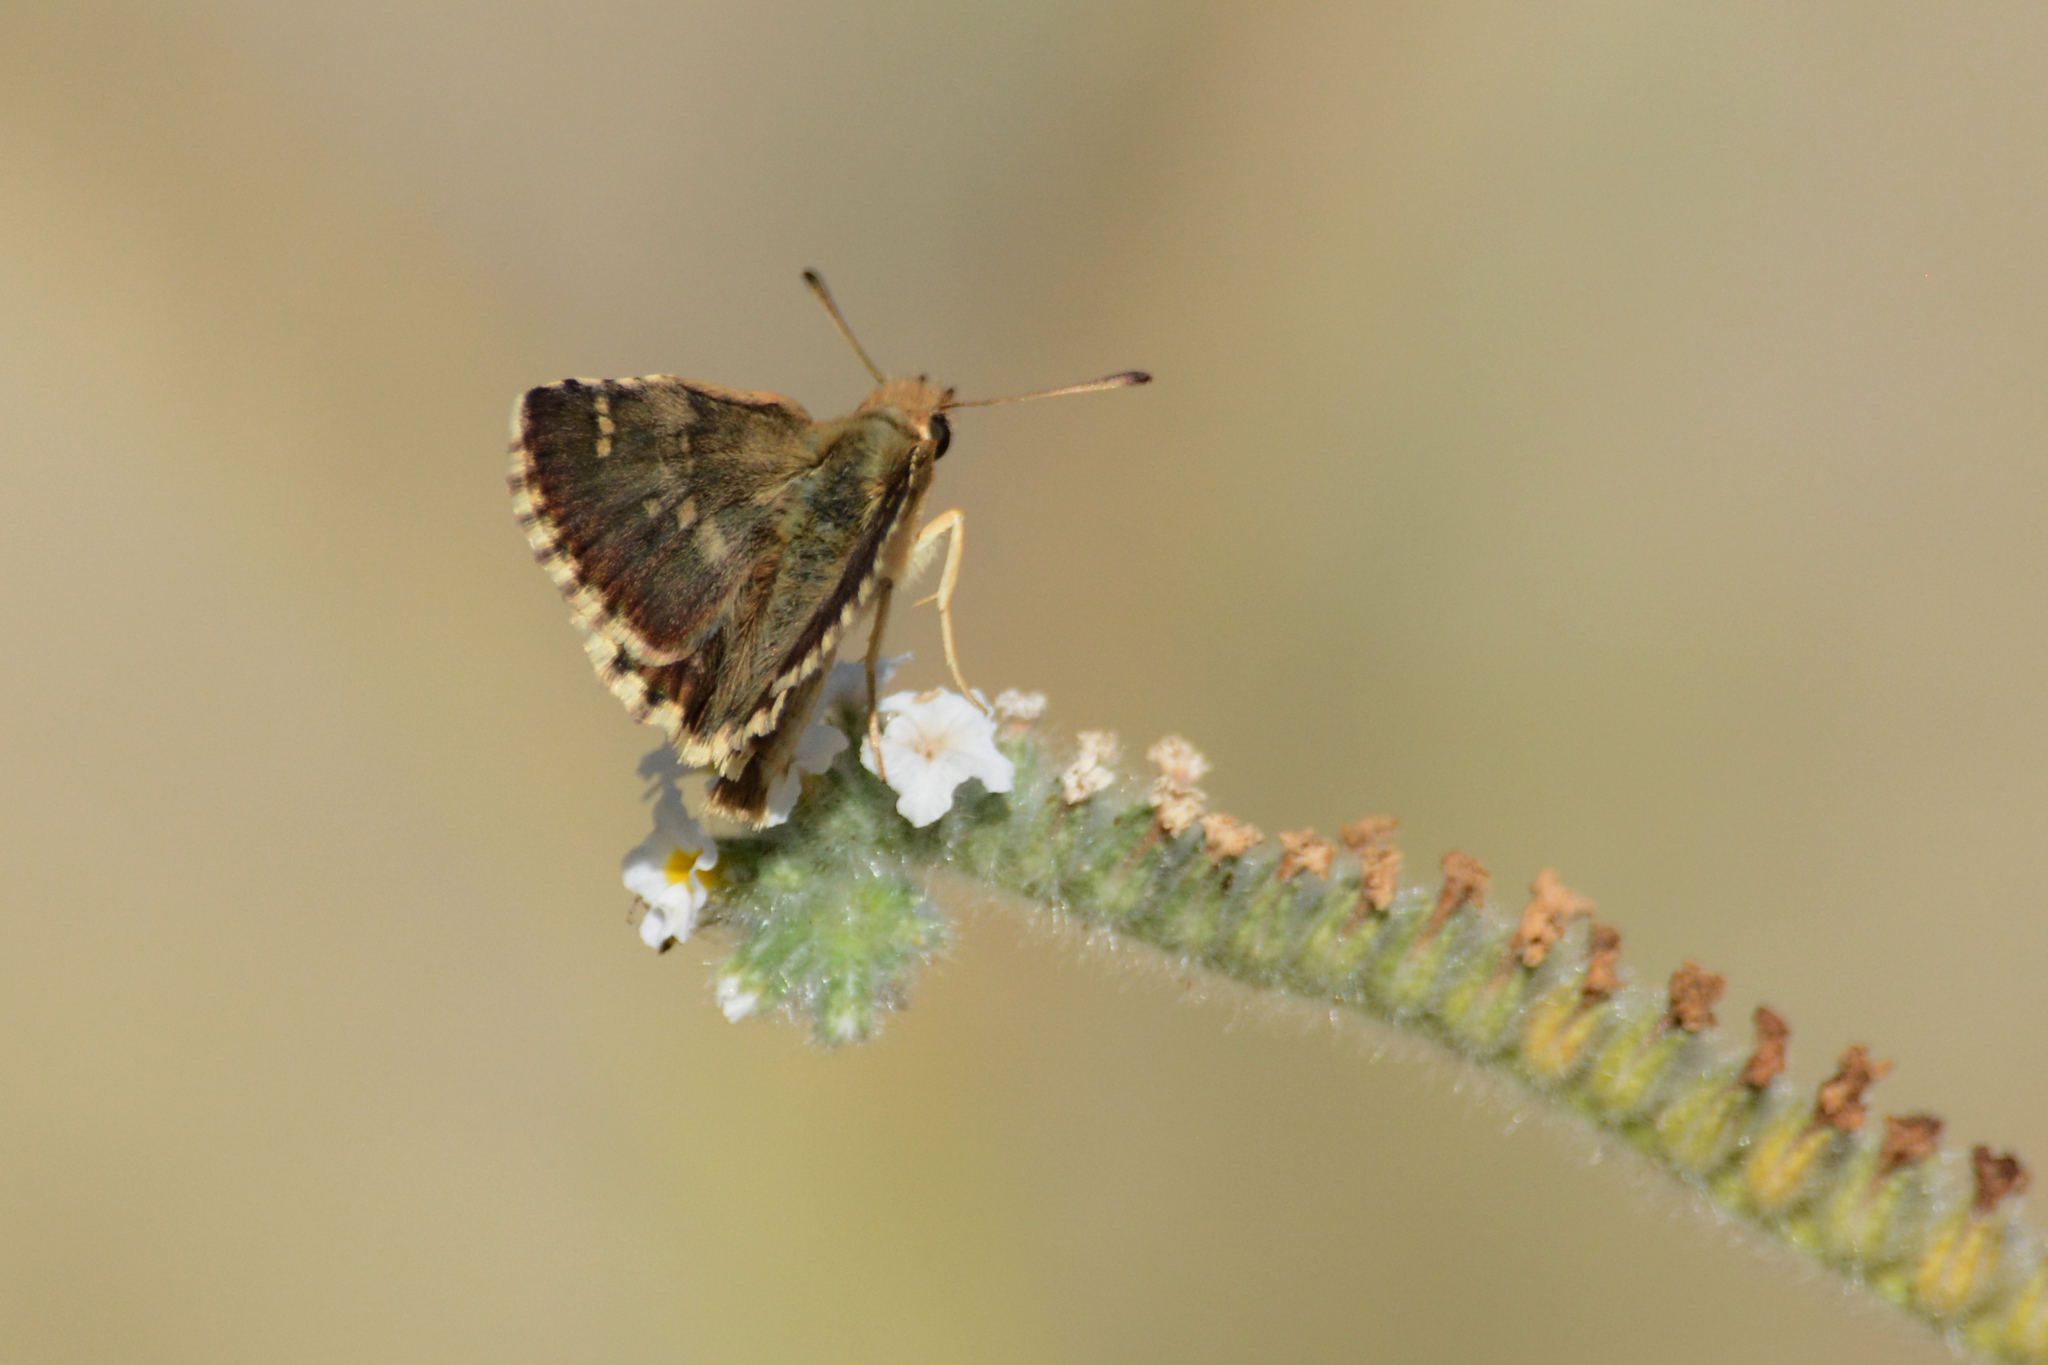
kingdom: Animalia
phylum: Arthropoda
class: Insecta
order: Lepidoptera
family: Hesperiidae
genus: Syrichtus
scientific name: Syrichtus Muschampia proteides
